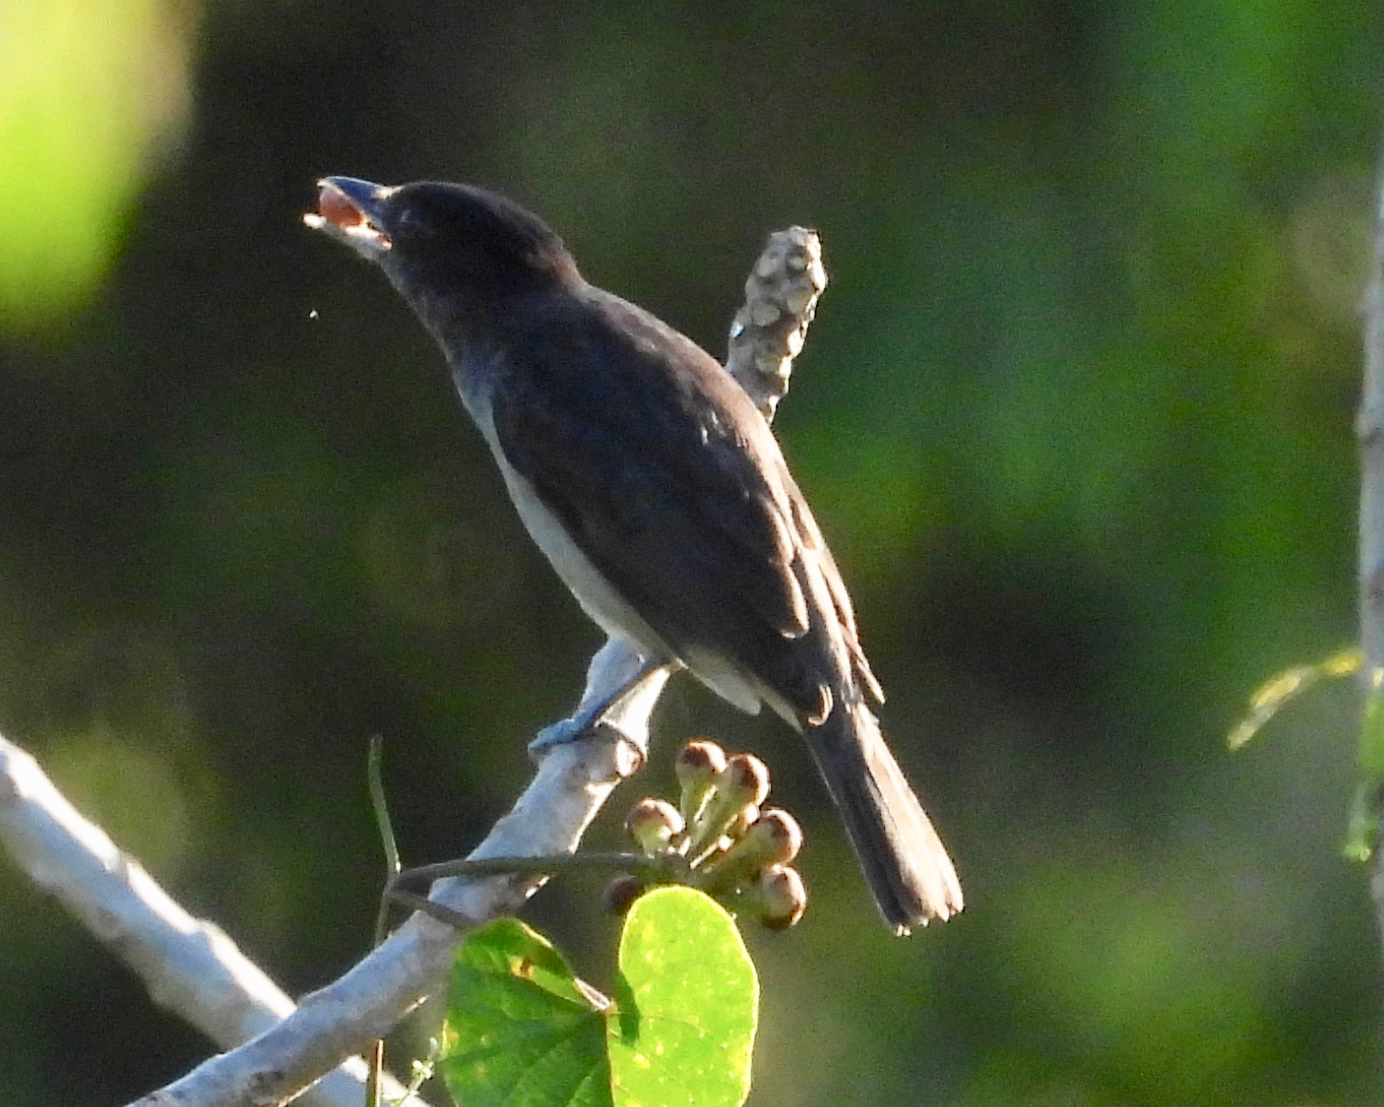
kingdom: Animalia
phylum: Chordata
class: Aves
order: Passeriformes
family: Cotingidae
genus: Pachyramphus
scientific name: Pachyramphus aglaiae
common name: Rose-throated becard
